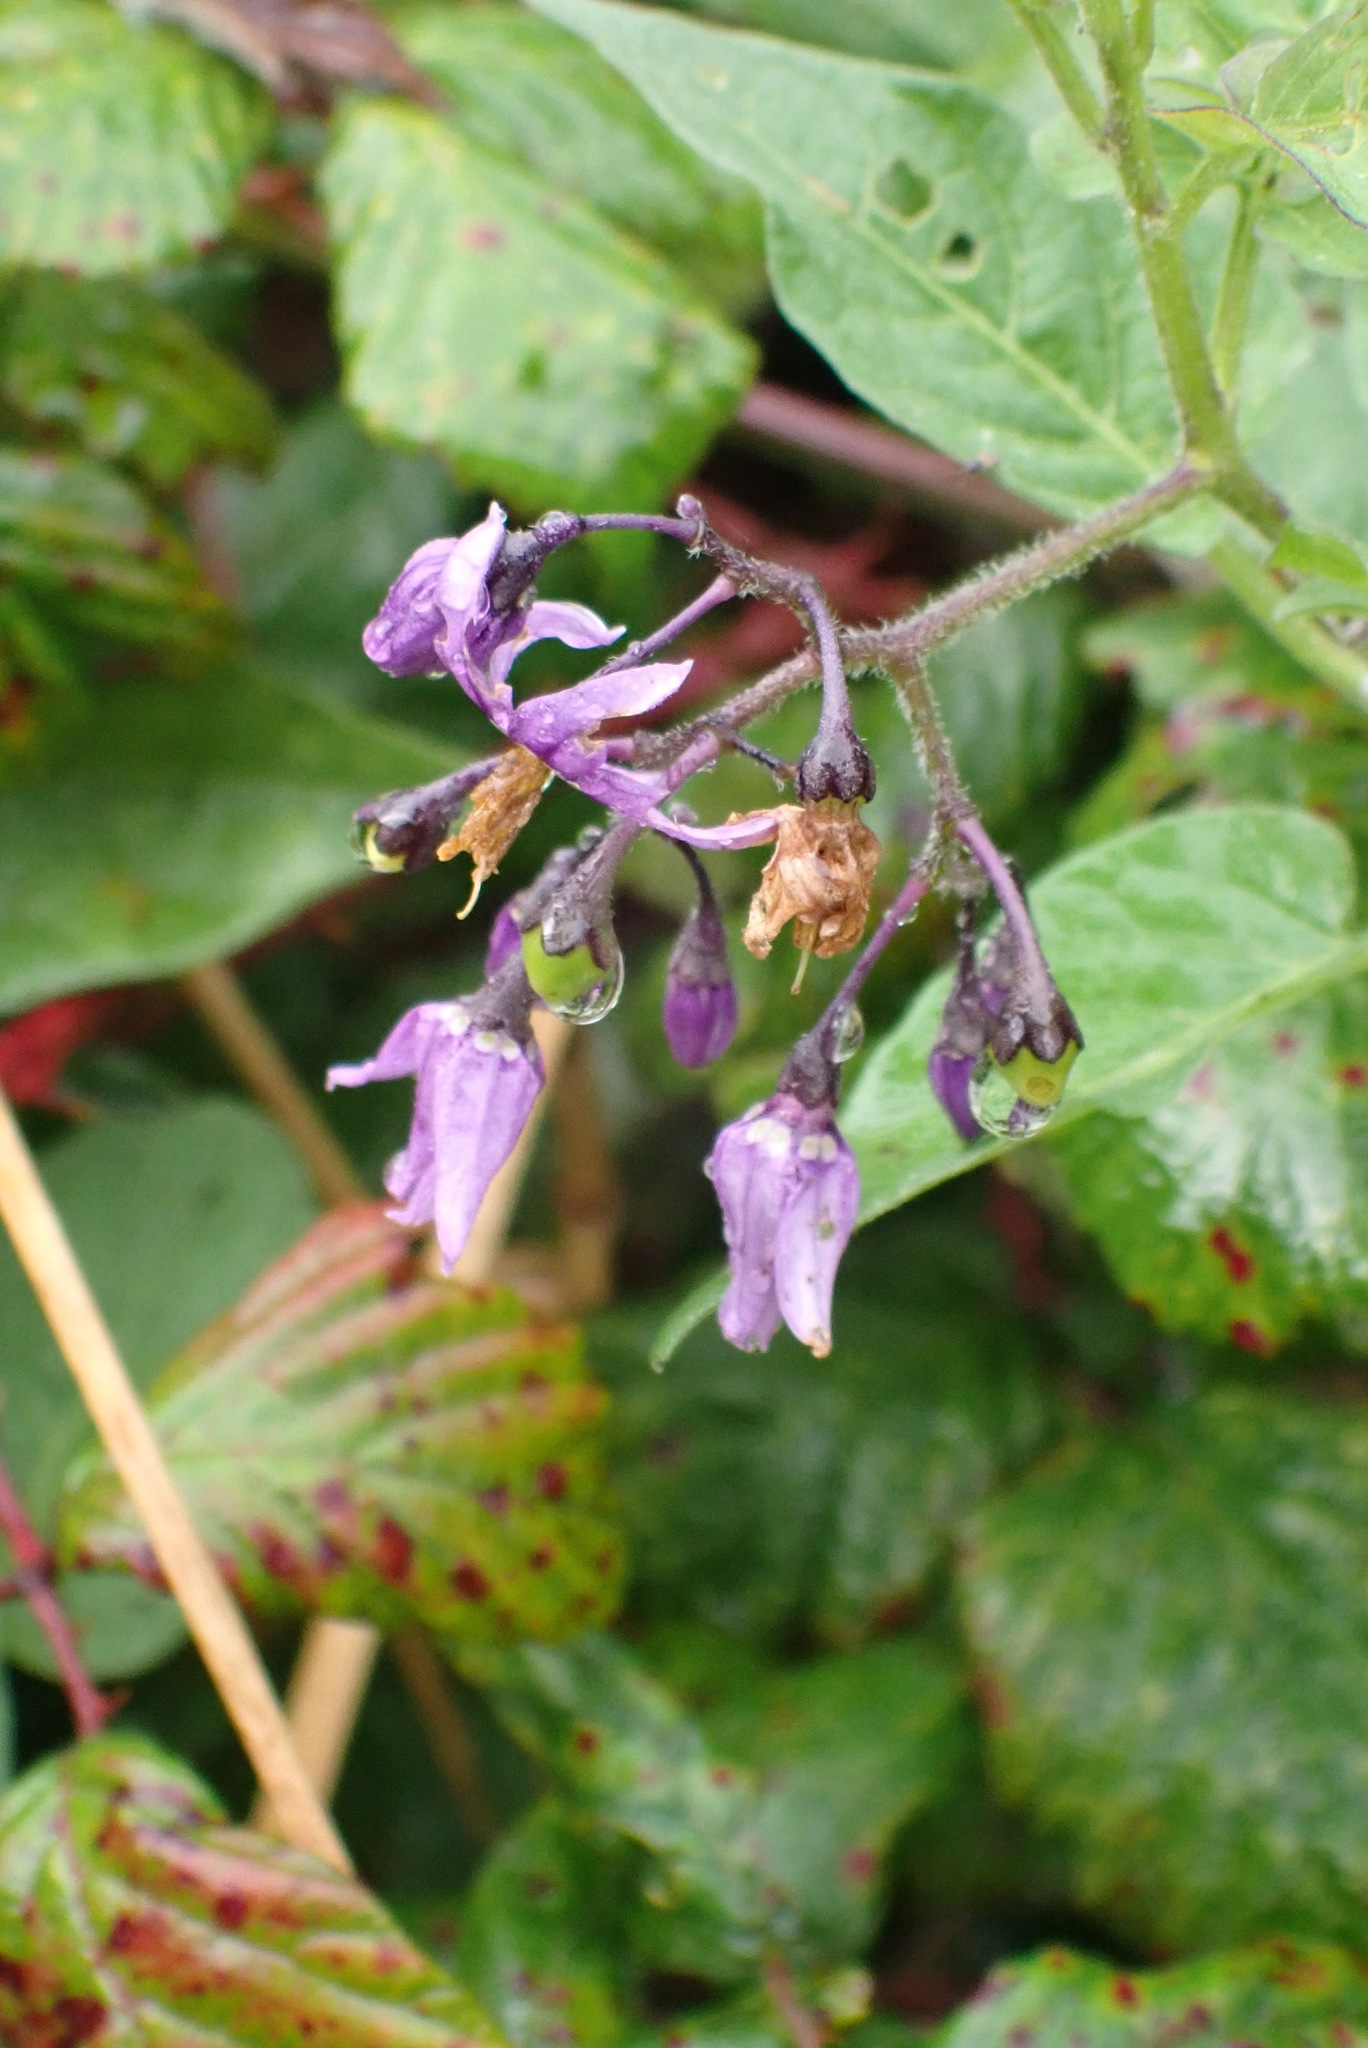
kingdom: Plantae
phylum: Tracheophyta
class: Magnoliopsida
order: Solanales
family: Solanaceae
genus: Solanum
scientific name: Solanum dulcamara
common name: Climbing nightshade
